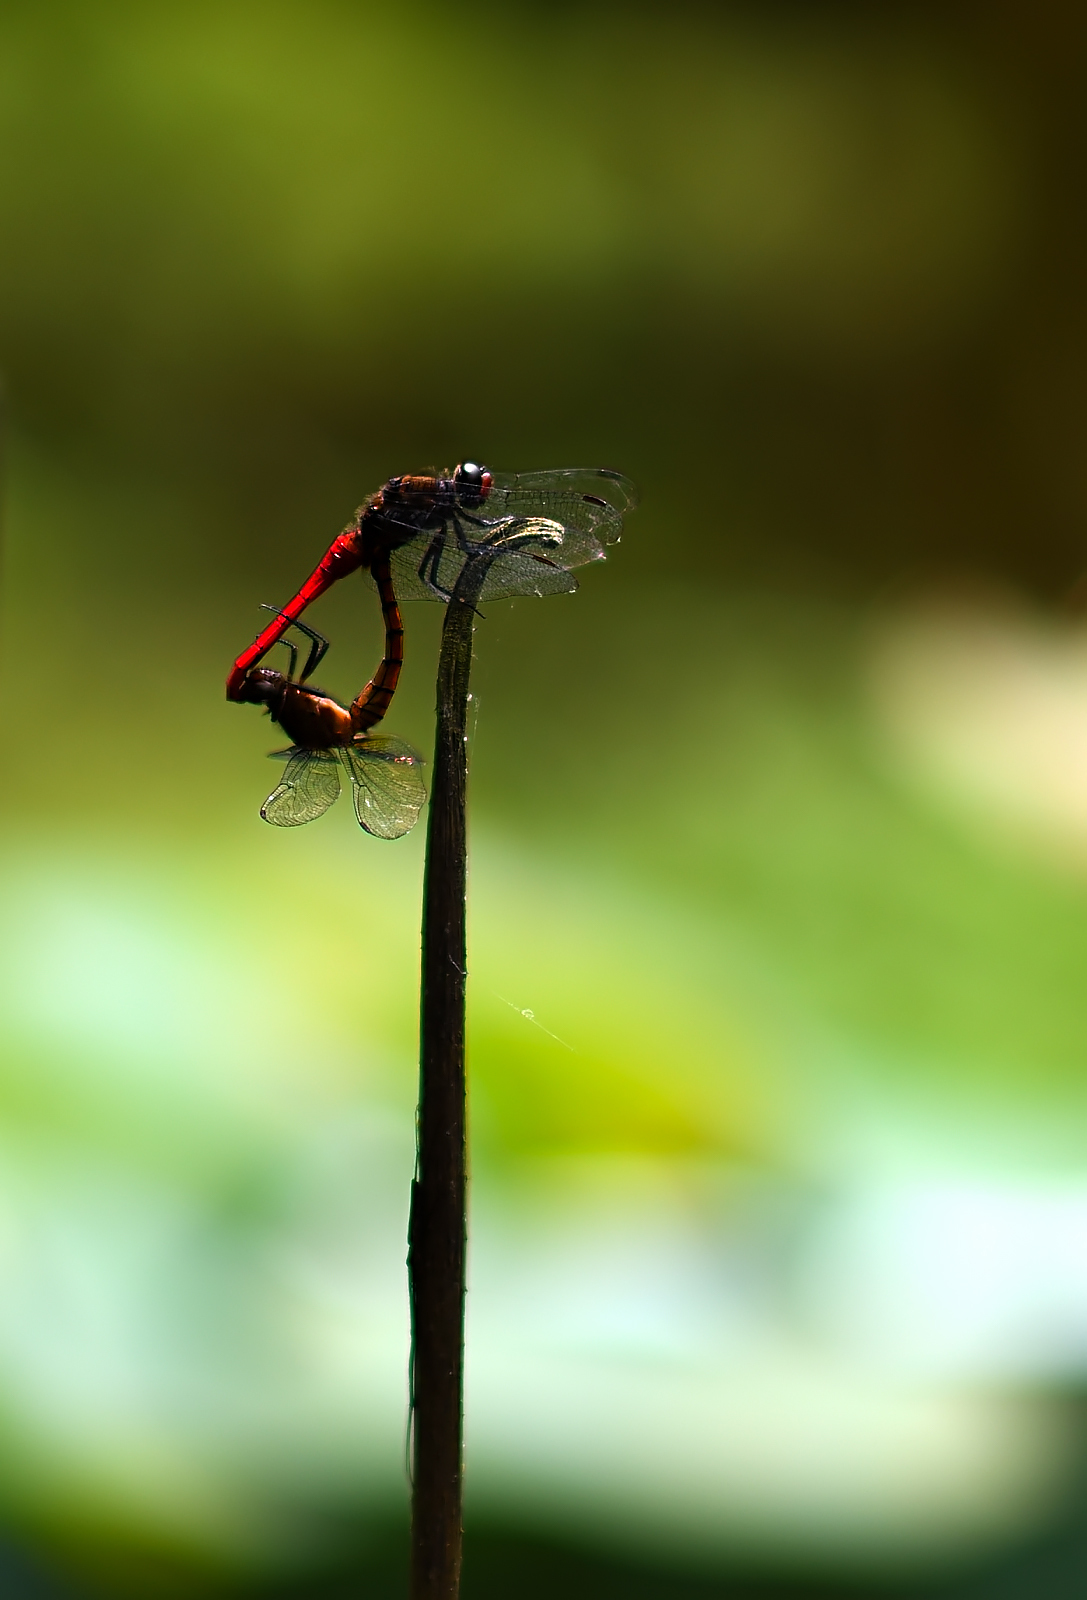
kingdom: Animalia
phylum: Arthropoda
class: Insecta
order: Odonata
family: Libellulidae
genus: Orthetrum
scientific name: Orthetrum chrysis
